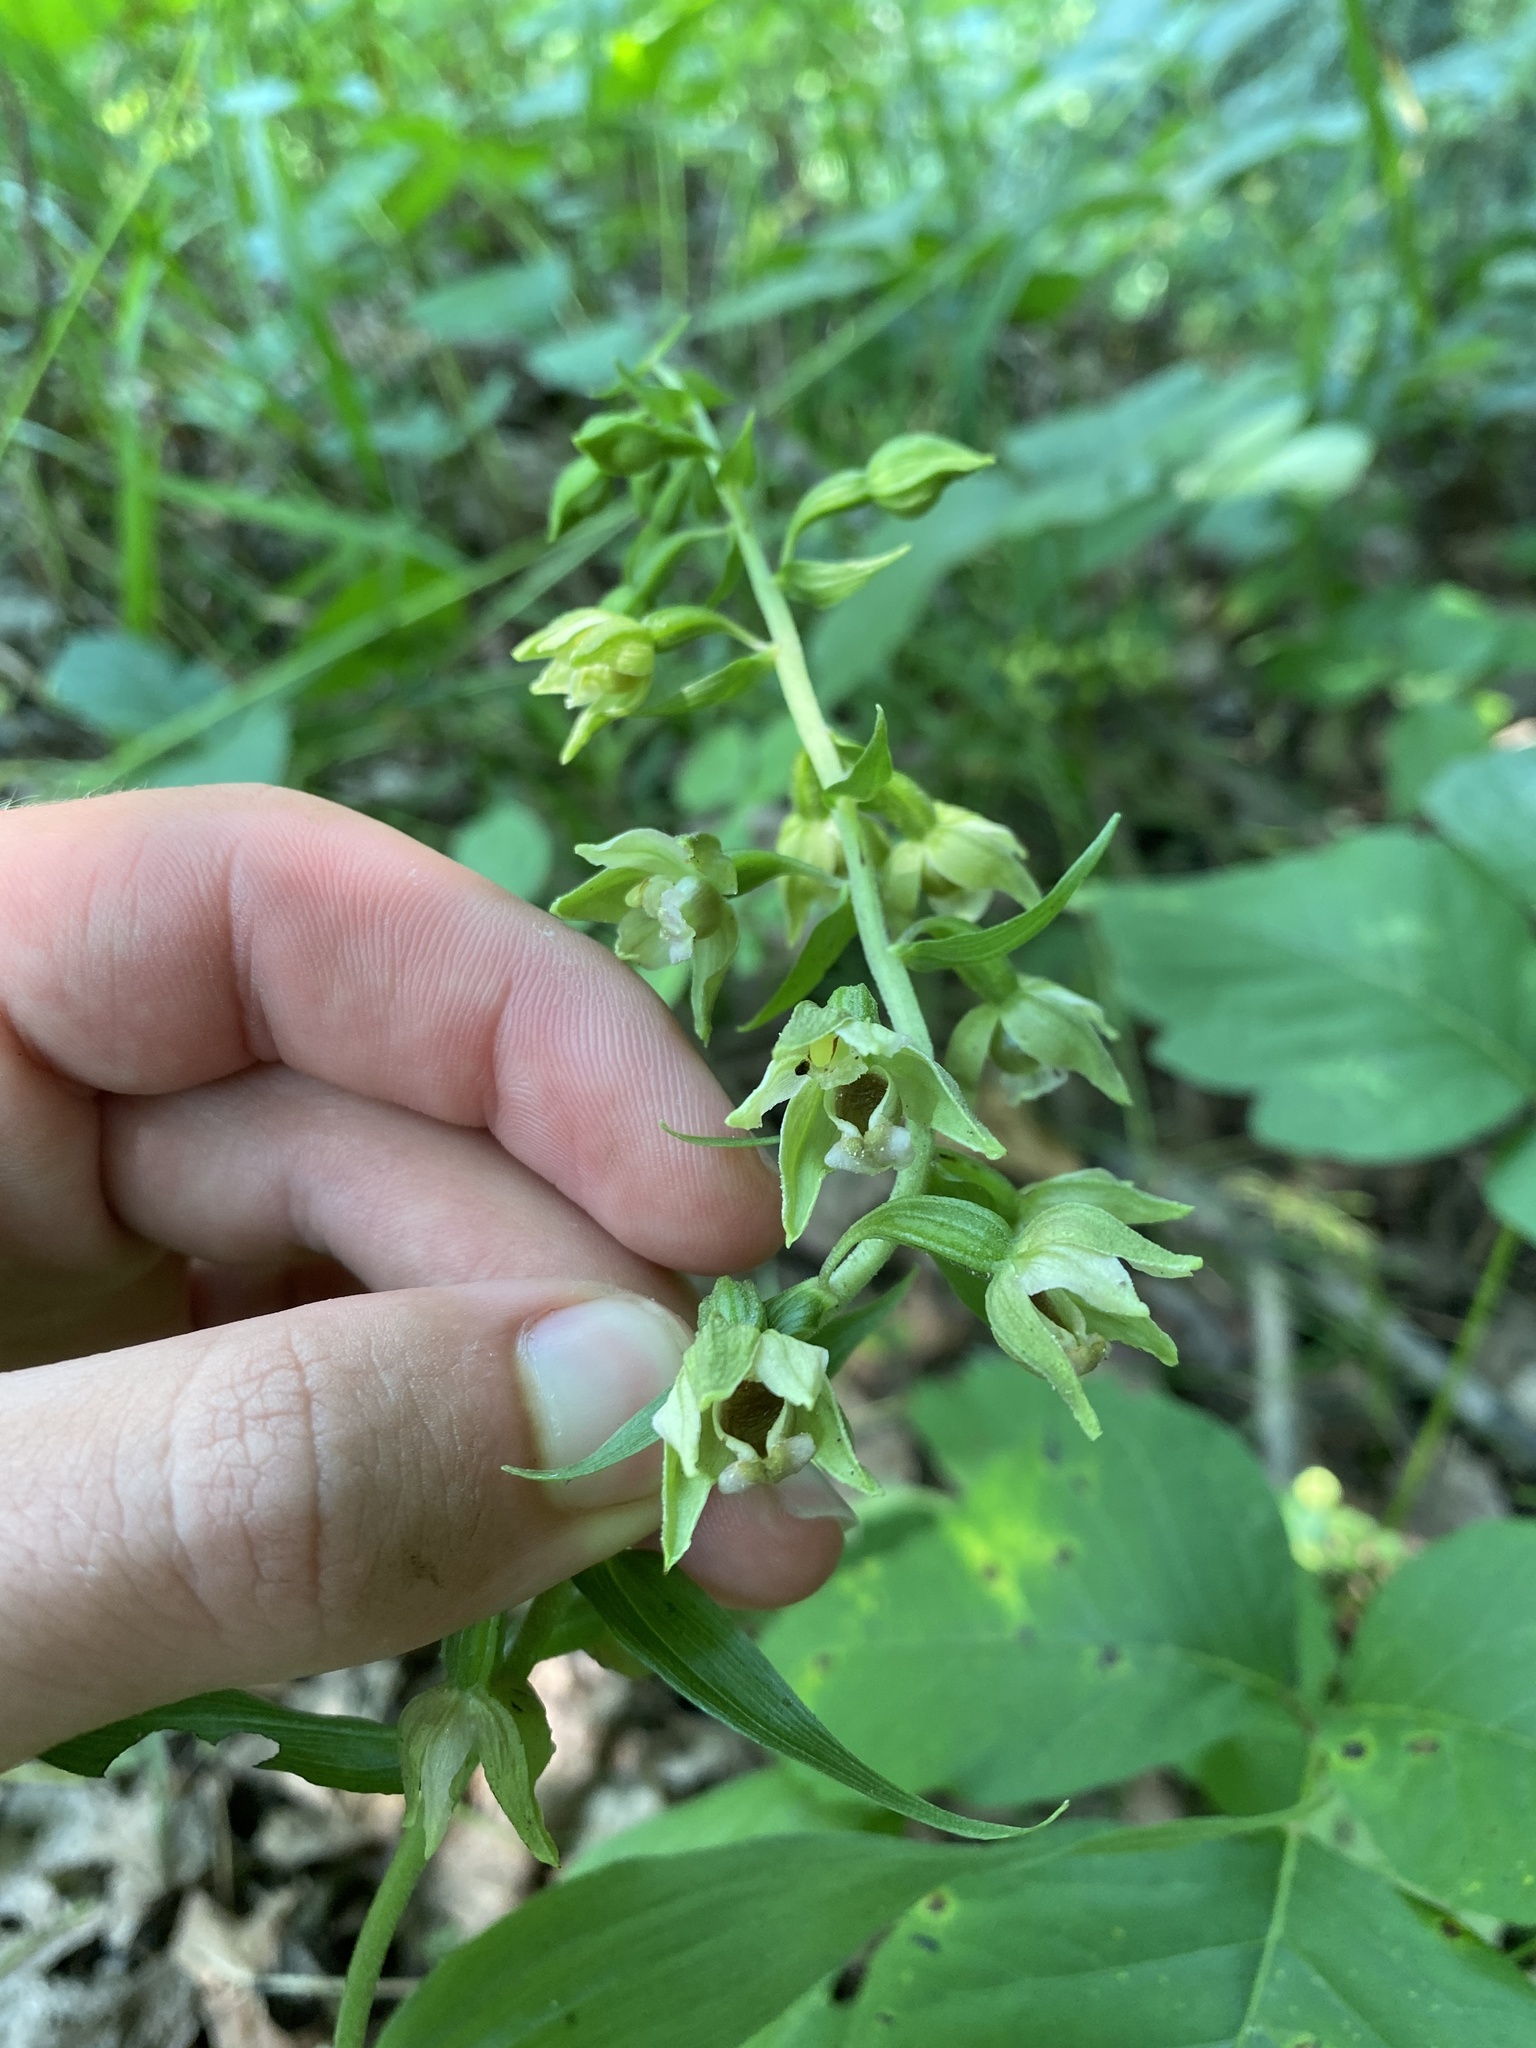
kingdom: Plantae
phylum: Tracheophyta
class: Liliopsida
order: Asparagales
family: Orchidaceae
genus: Epipactis
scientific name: Epipactis helleborine
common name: Broad-leaved helleborine
